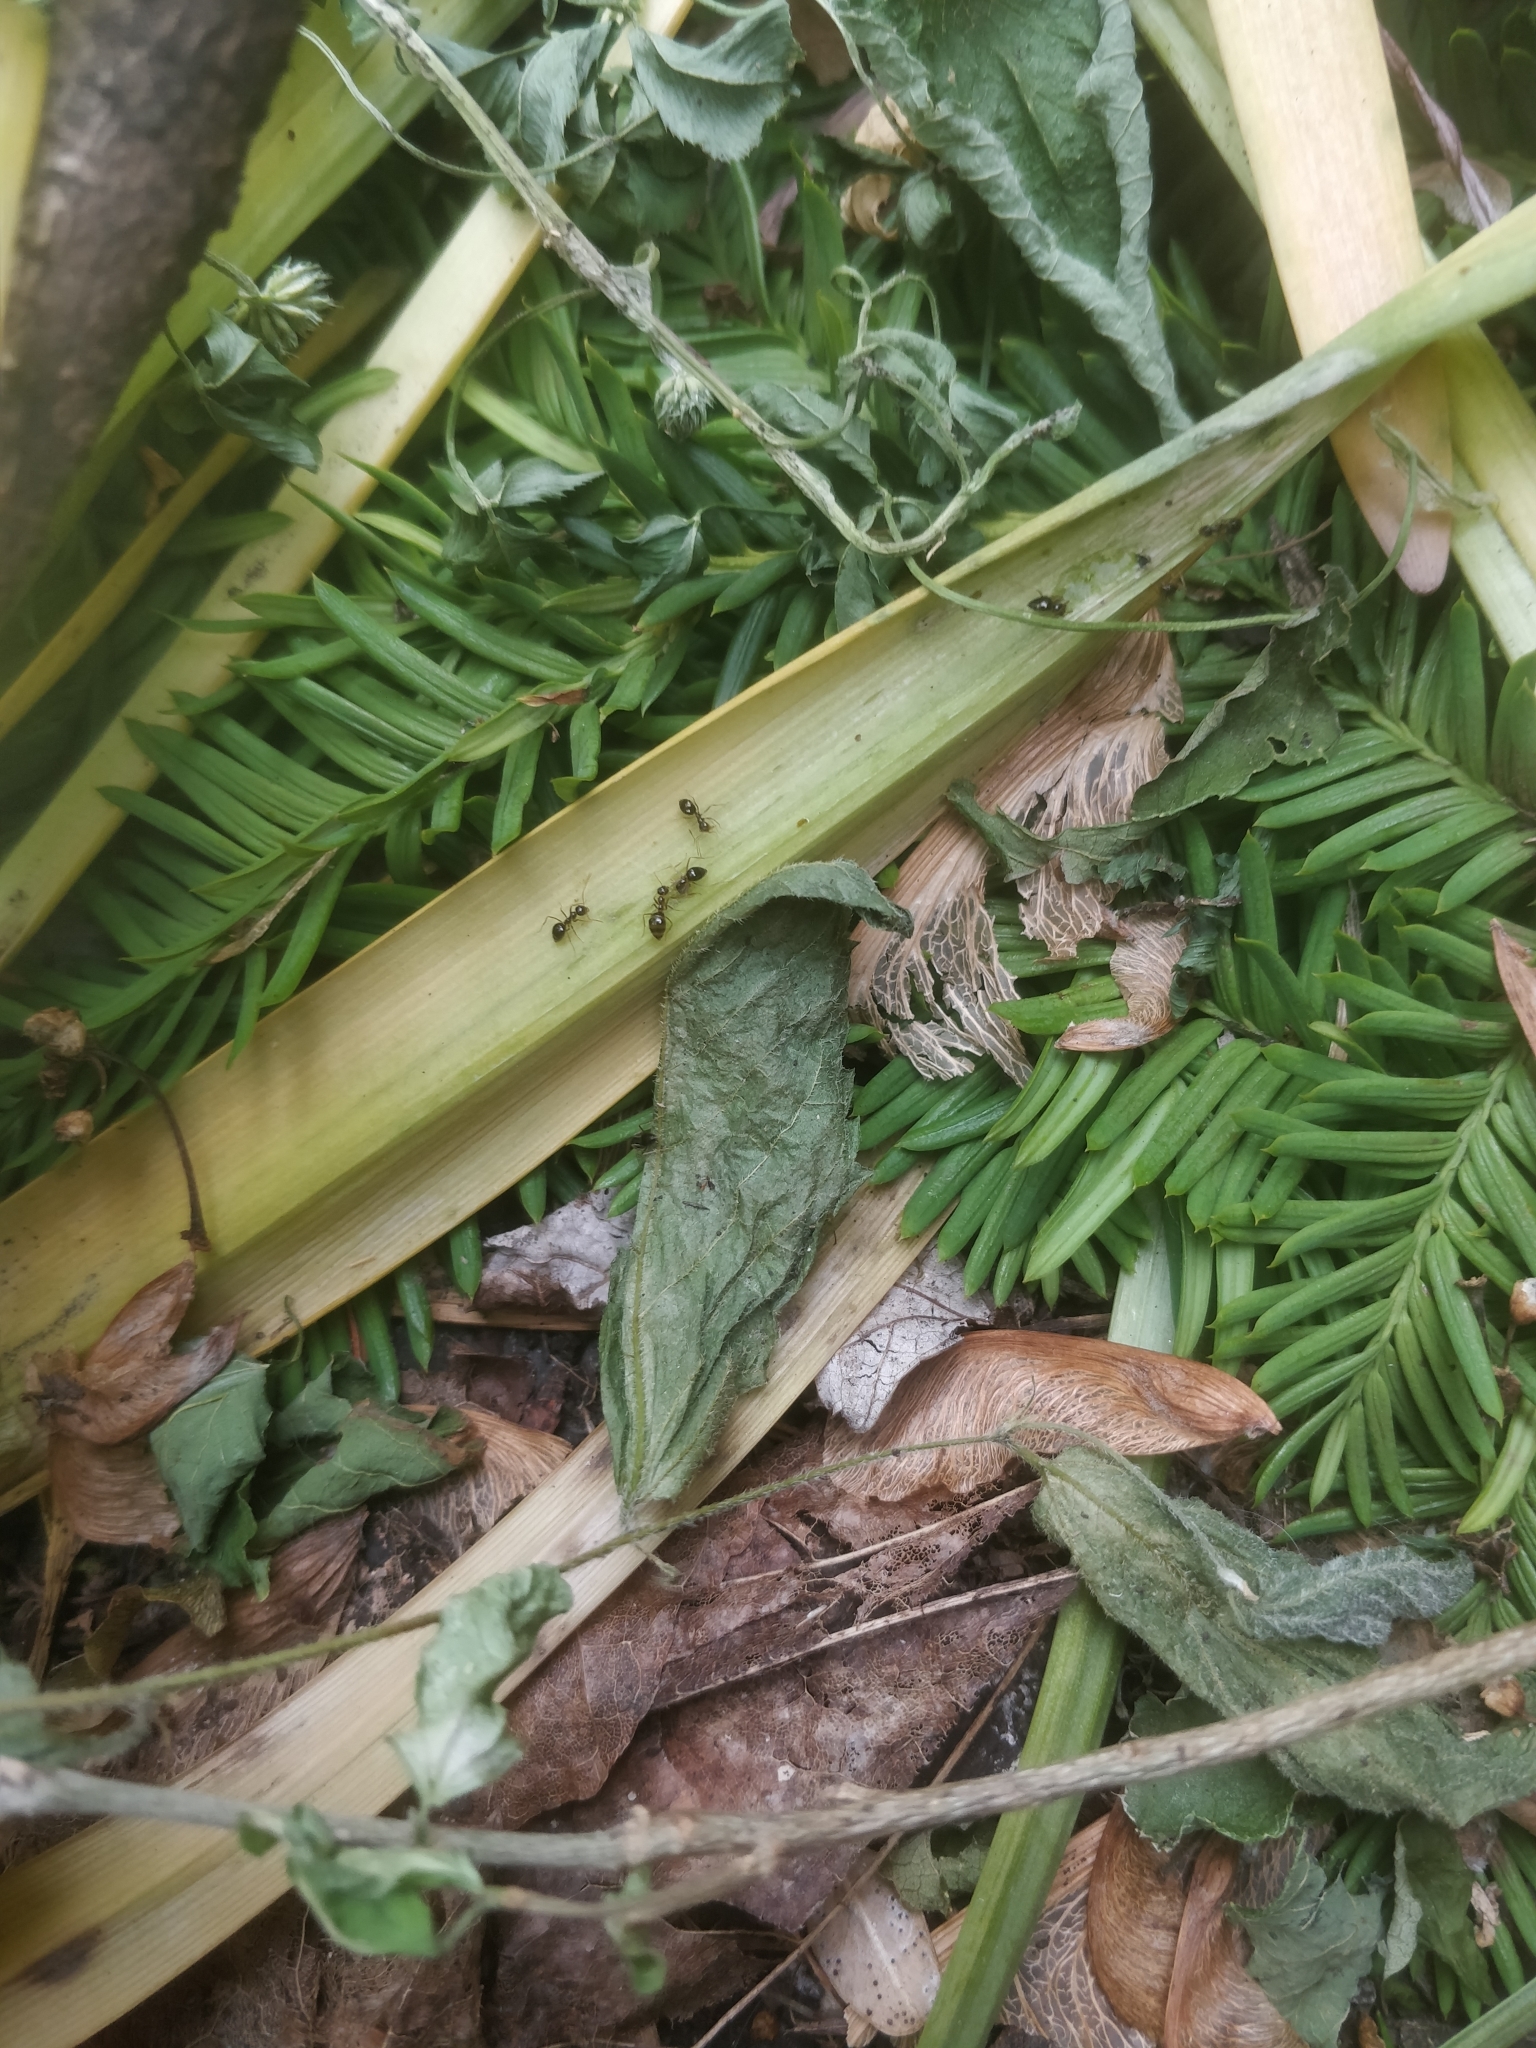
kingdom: Animalia
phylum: Arthropoda
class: Insecta
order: Hymenoptera
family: Formicidae
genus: Prenolepis
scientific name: Prenolepis imparis
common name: Small honey ant
